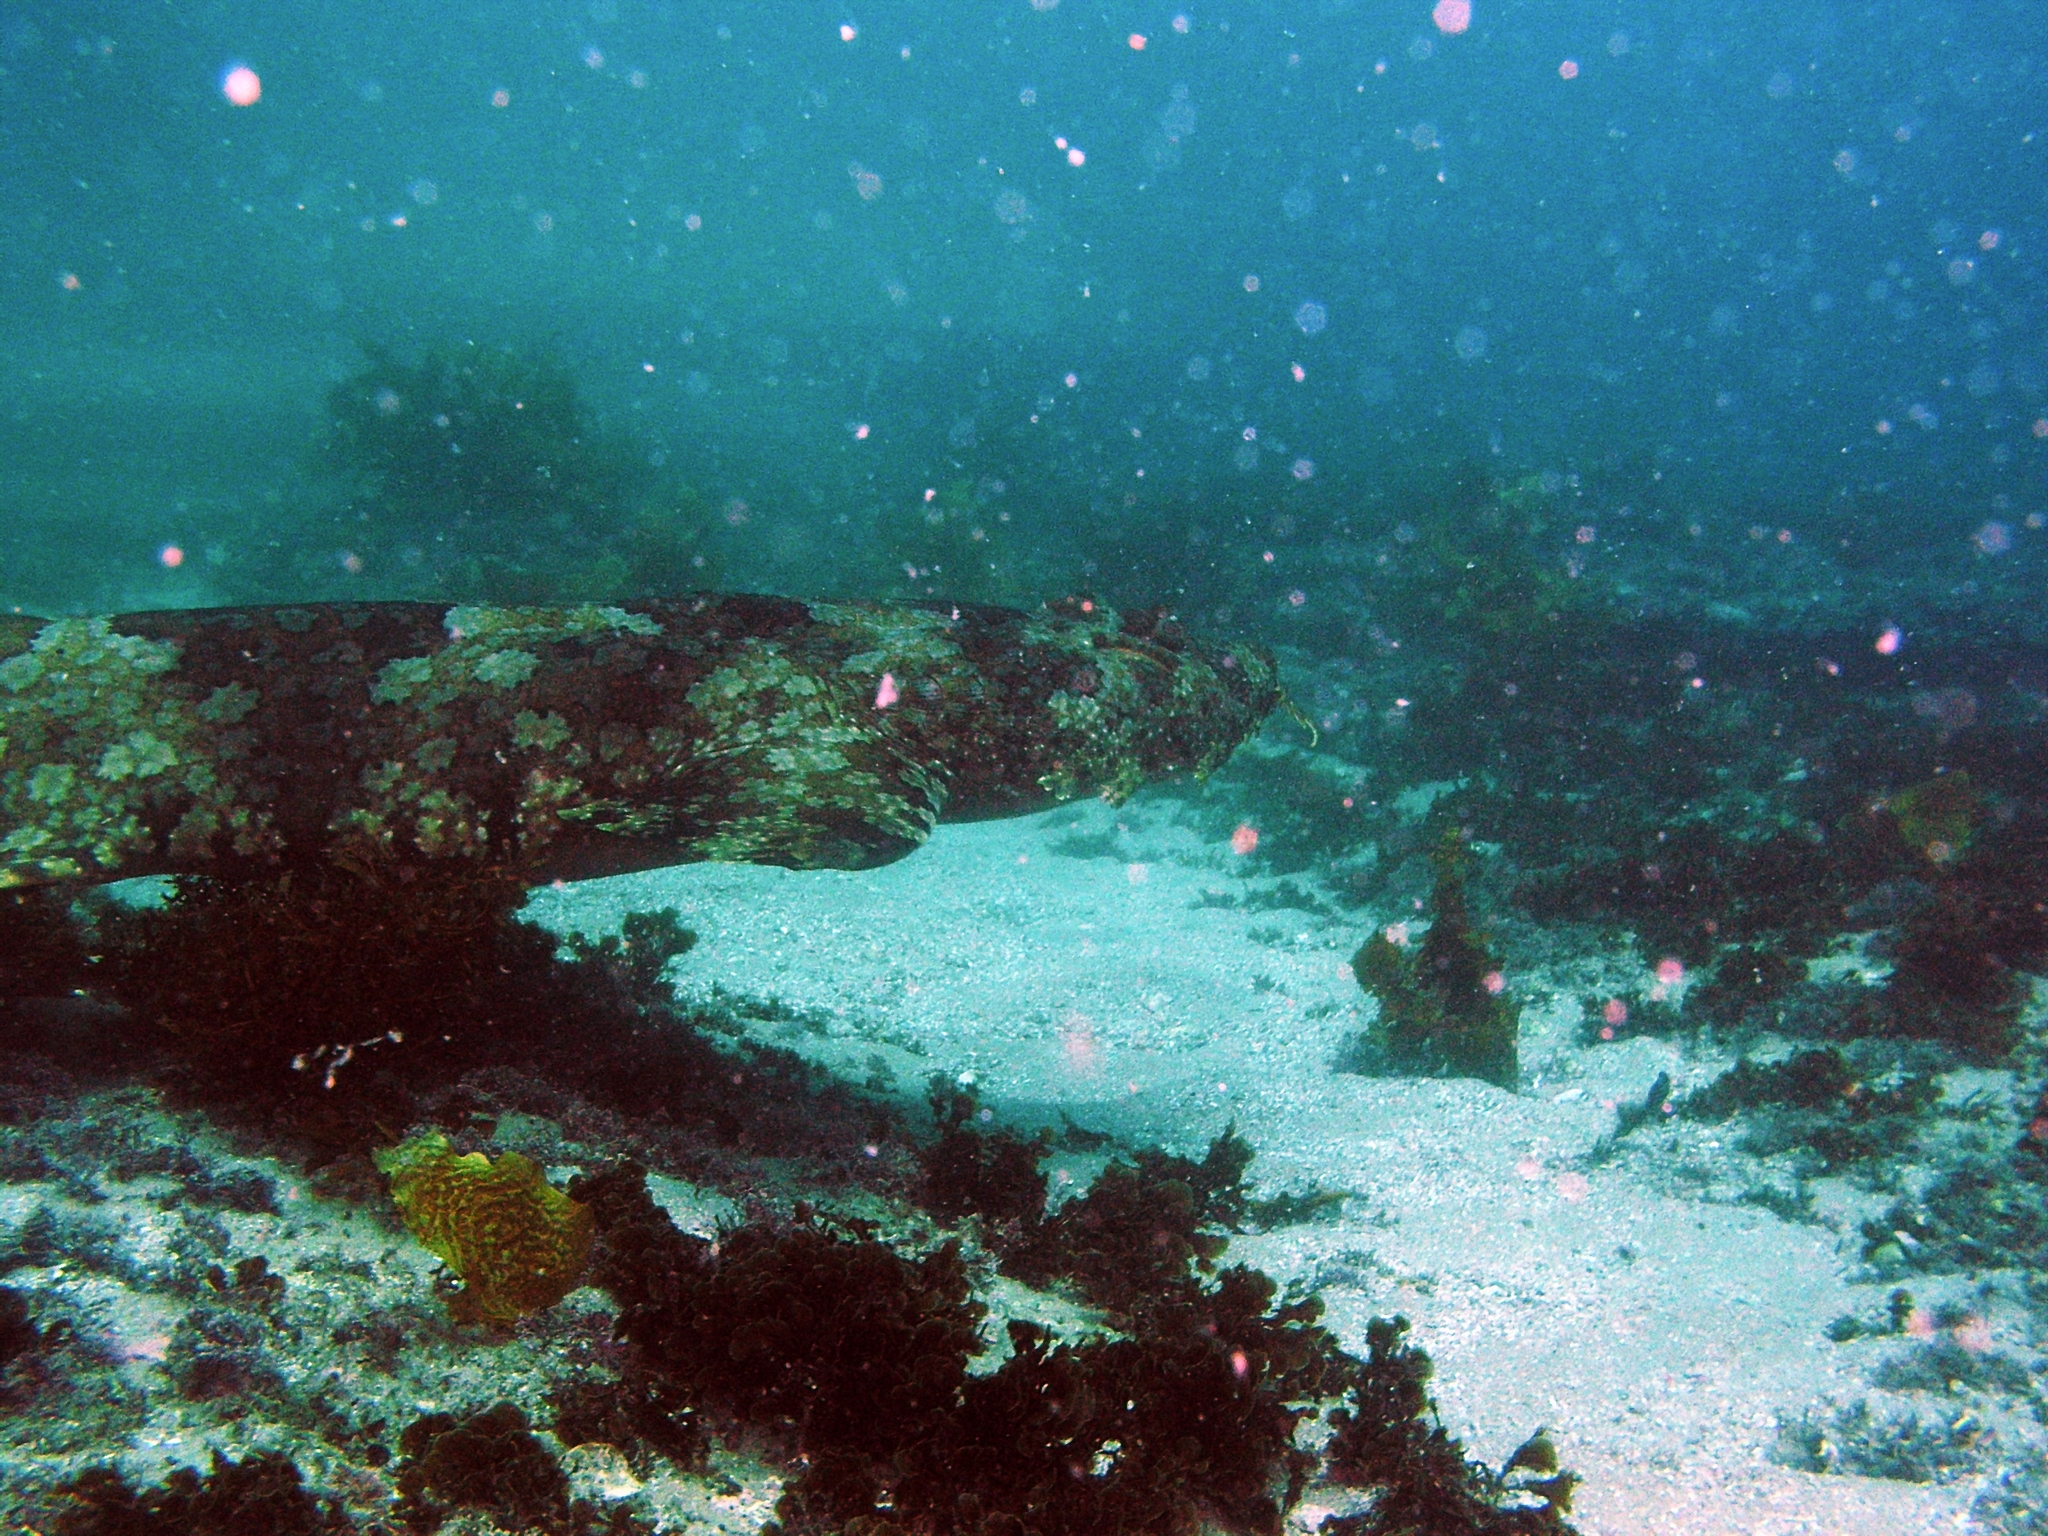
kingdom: Animalia
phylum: Chordata
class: Elasmobranchii
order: Orectolobiformes
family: Orectolobidae
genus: Orectolobus
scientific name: Orectolobus halei
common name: Banded wobbegong
